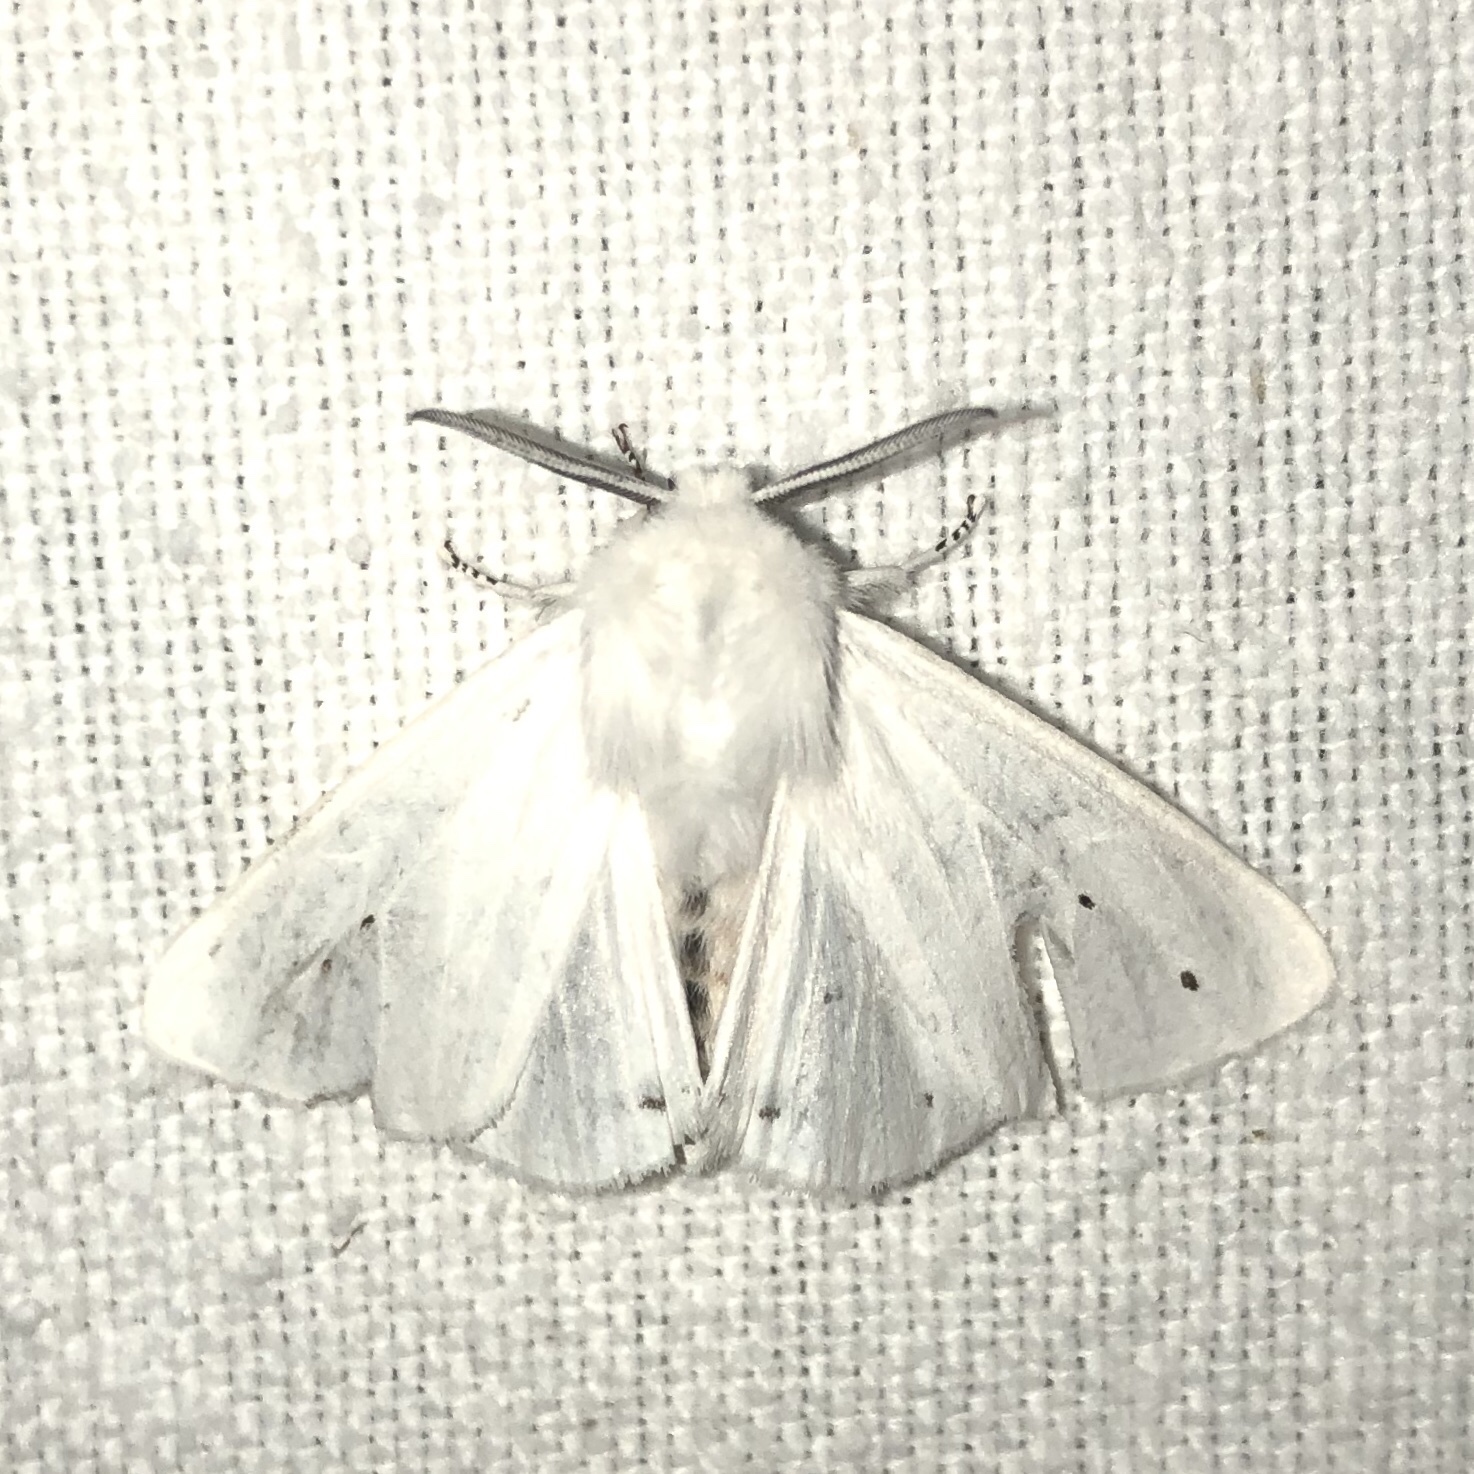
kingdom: Animalia
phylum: Arthropoda
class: Insecta
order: Lepidoptera
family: Erebidae
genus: Spilosoma
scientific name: Spilosoma virginica
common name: Virginia tiger moth
